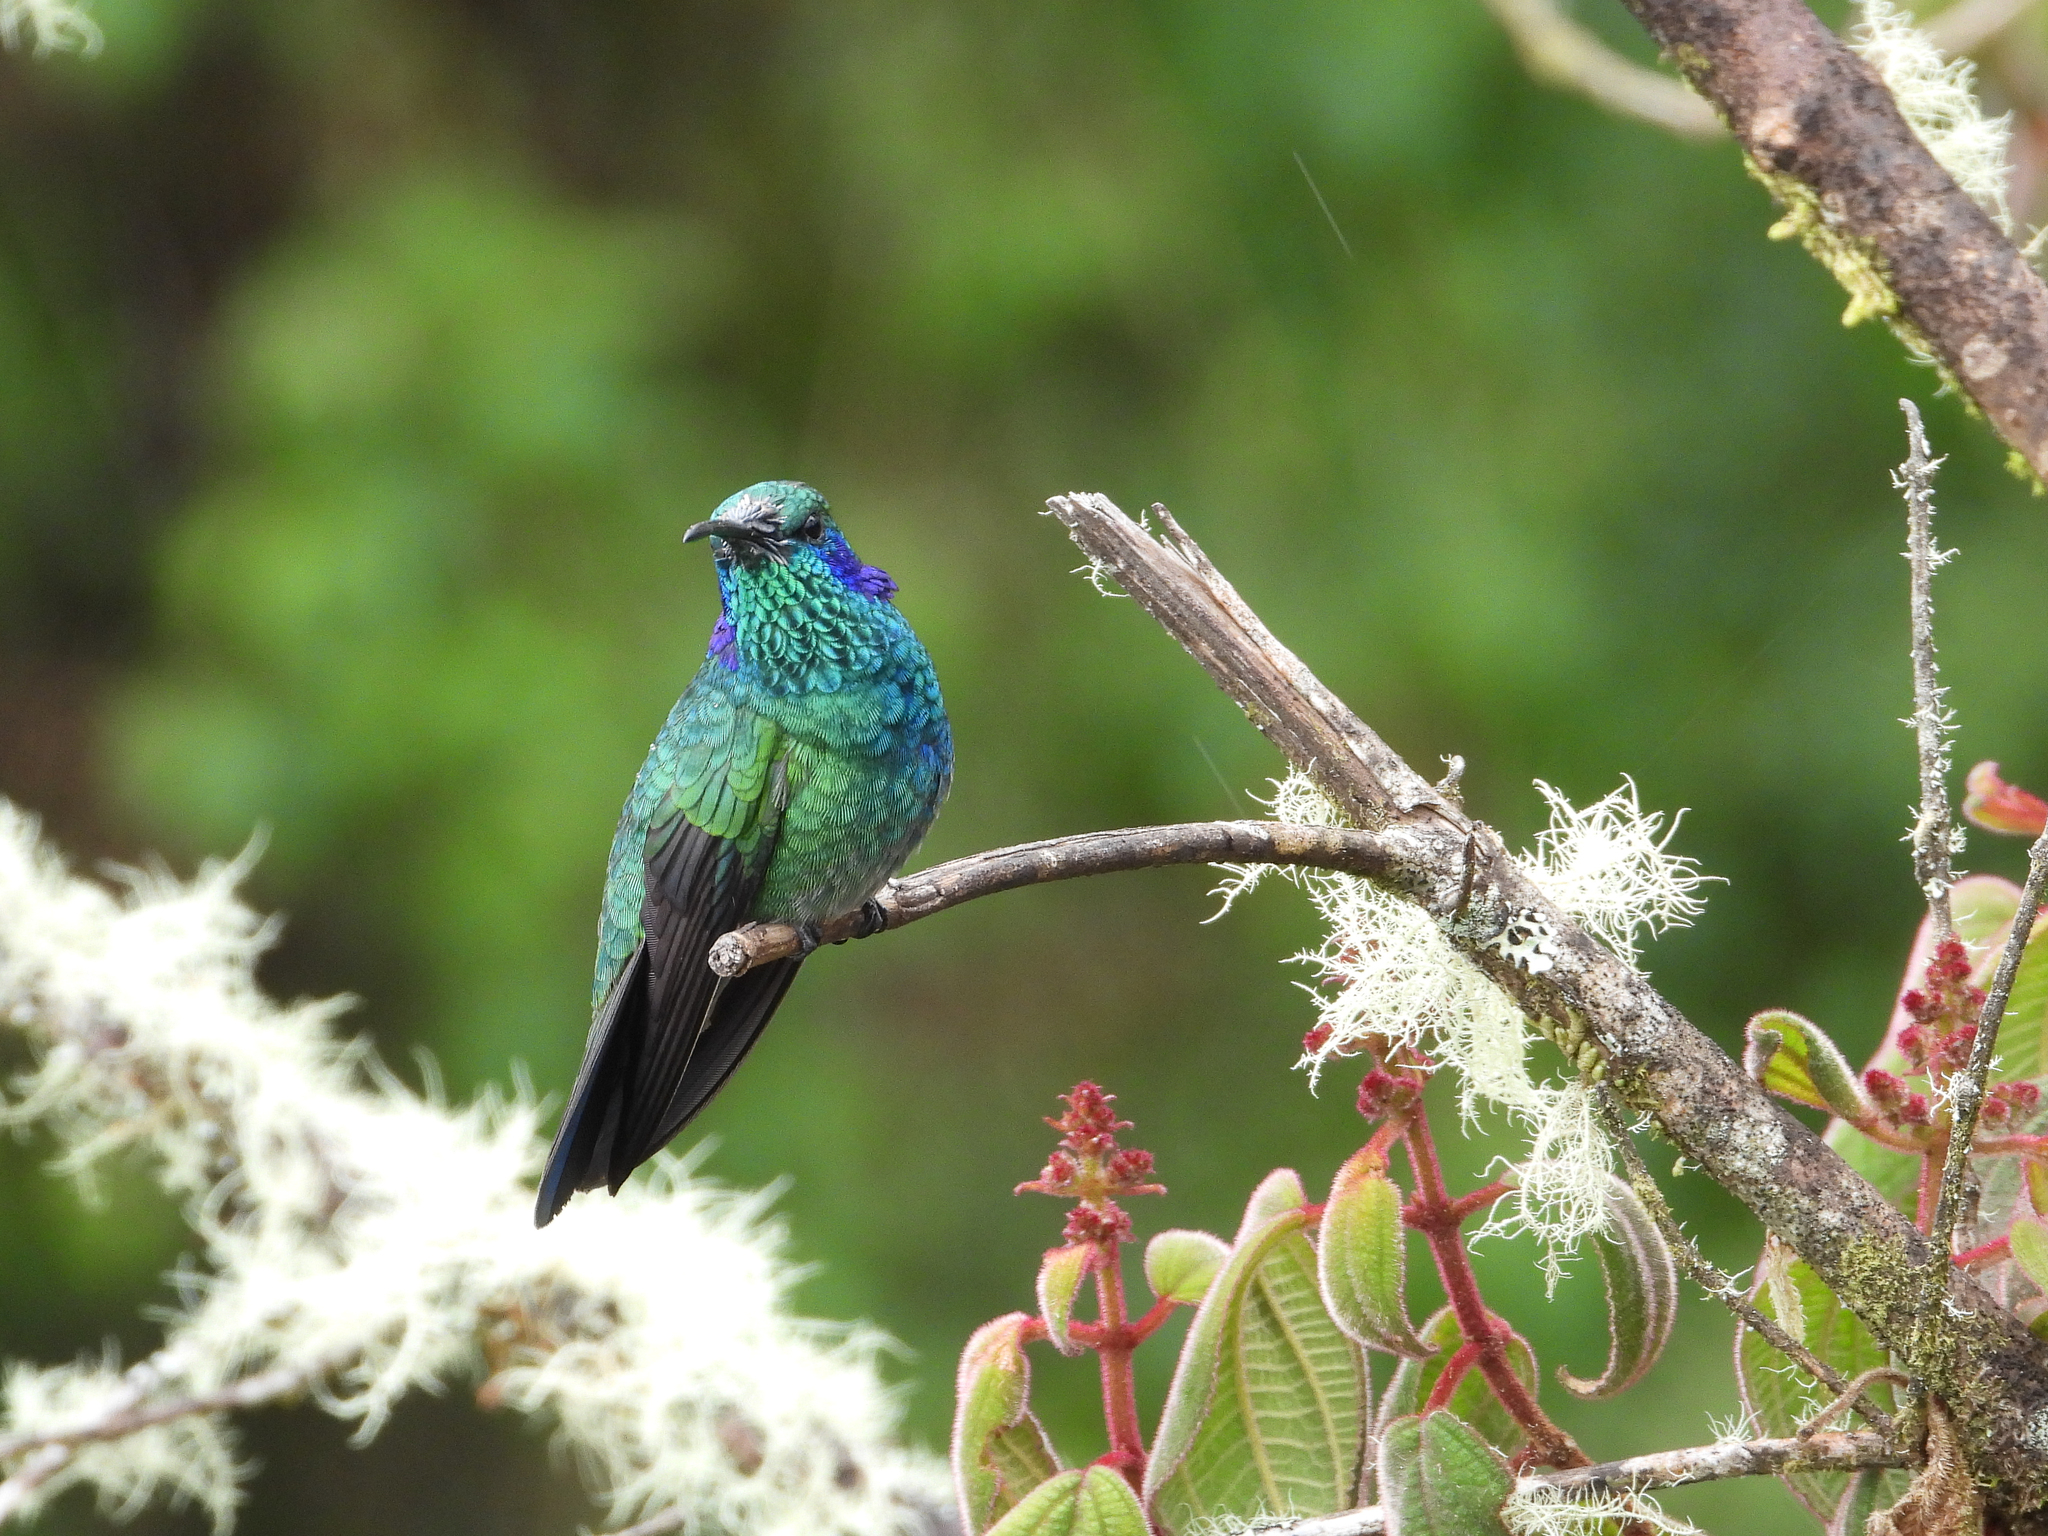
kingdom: Animalia
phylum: Chordata
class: Aves
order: Apodiformes
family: Trochilidae
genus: Colibri
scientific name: Colibri cyanotus
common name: Lesser violetear
